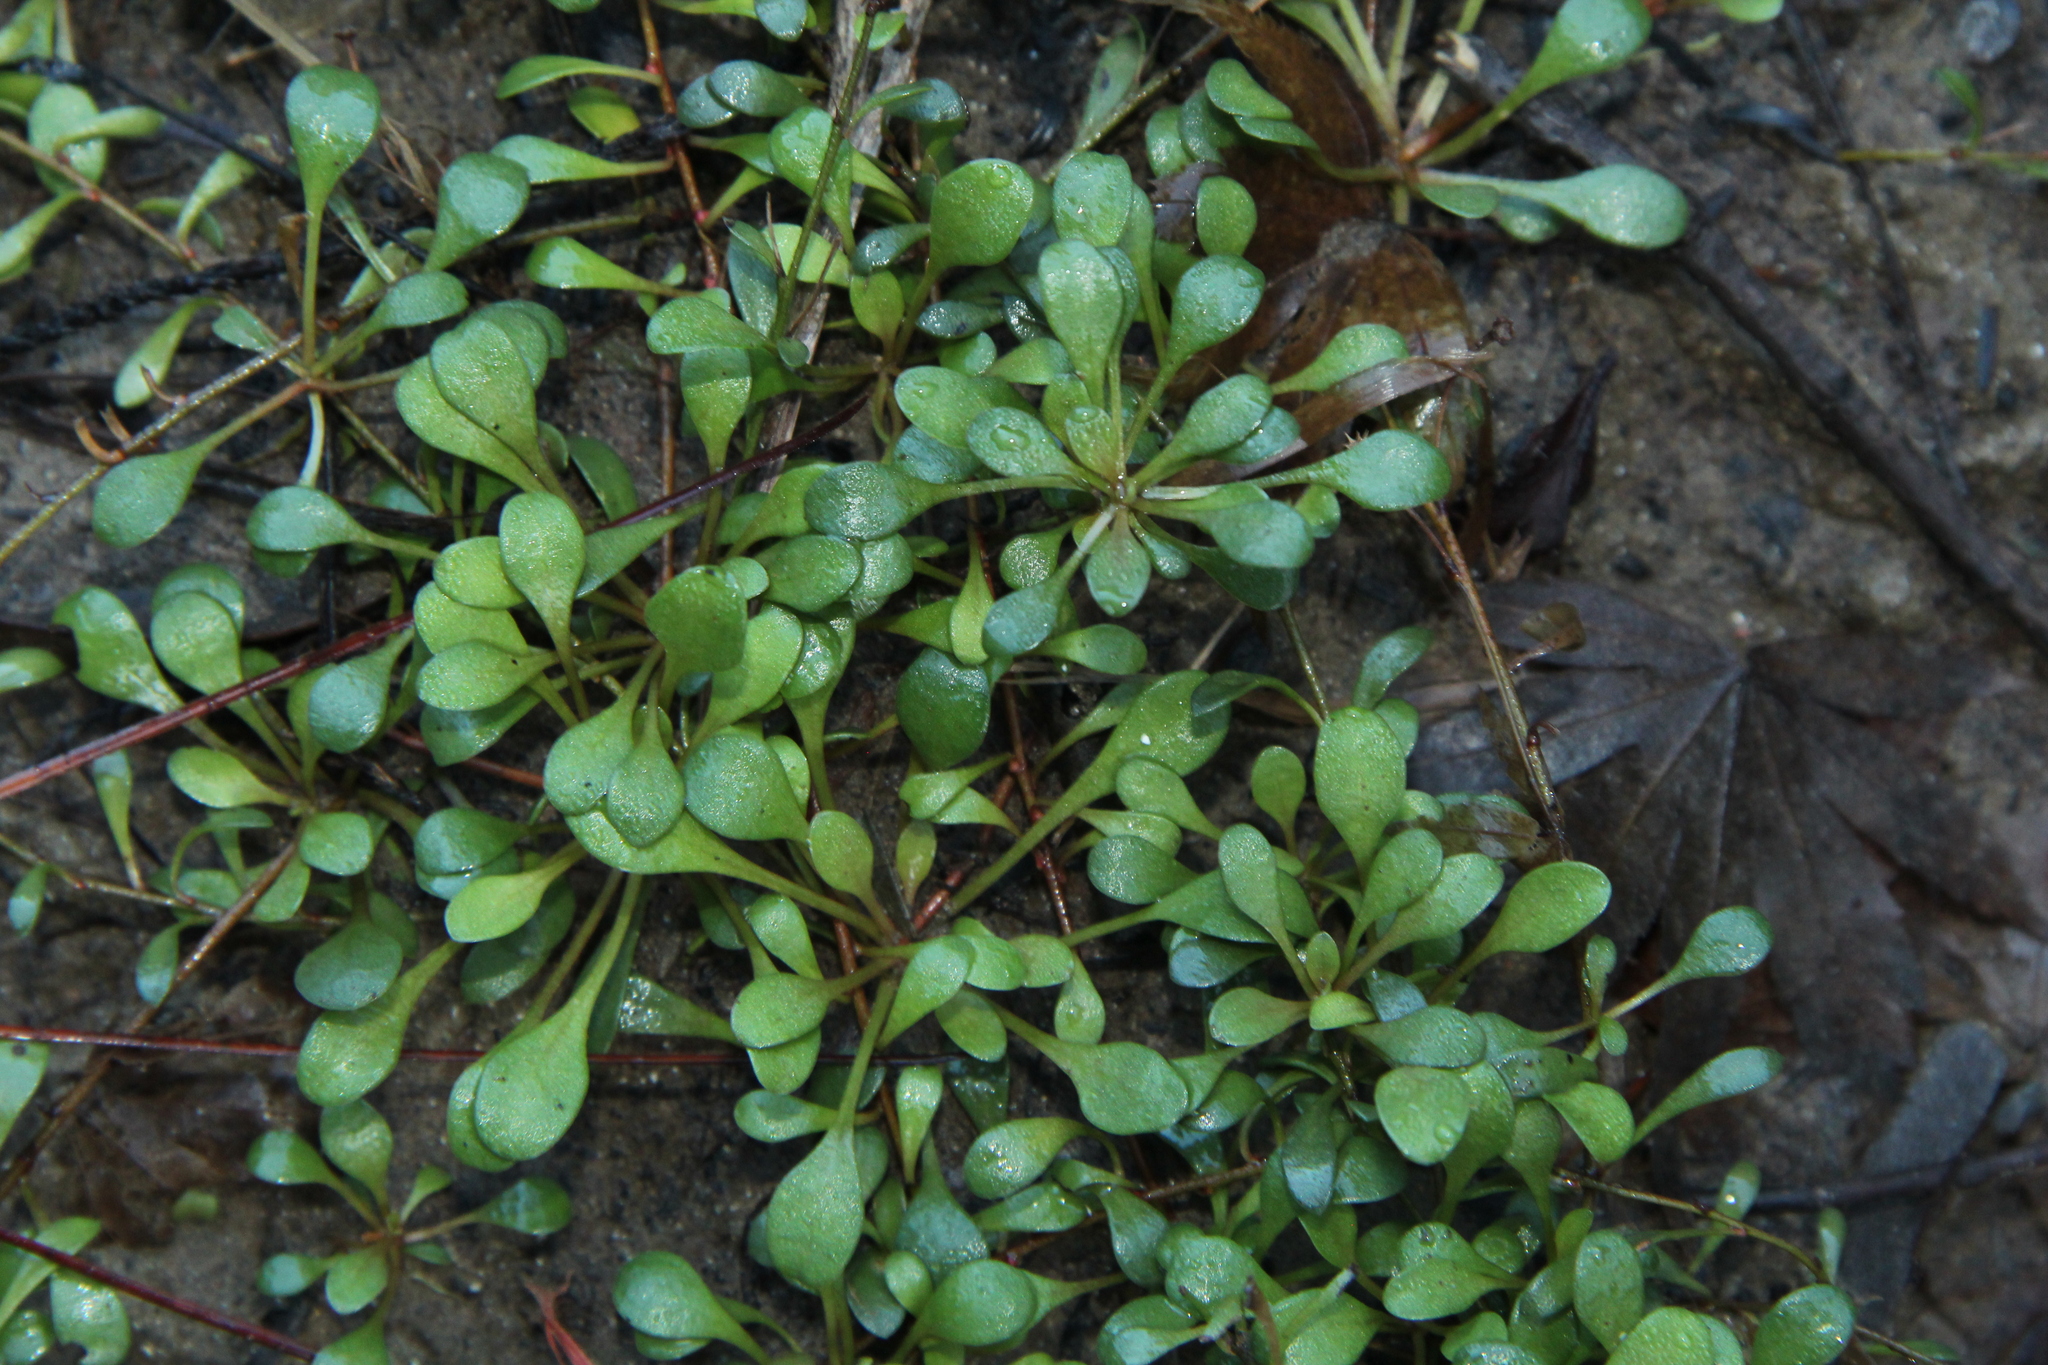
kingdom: Plantae
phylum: Tracheophyta
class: Magnoliopsida
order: Ericales
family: Primulaceae
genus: Samolus
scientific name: Samolus repens
